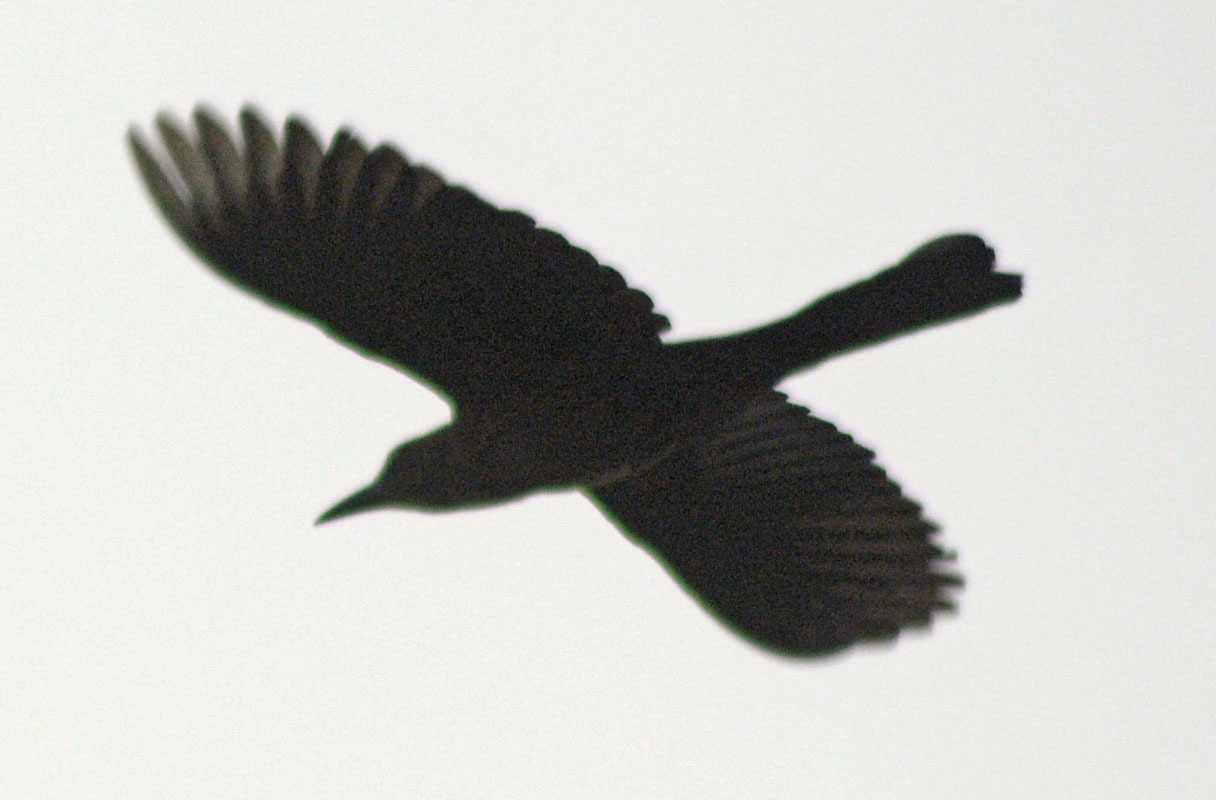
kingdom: Animalia
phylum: Chordata
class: Aves
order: Passeriformes
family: Icteridae
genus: Quiscalus
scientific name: Quiscalus mexicanus
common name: Great-tailed grackle
